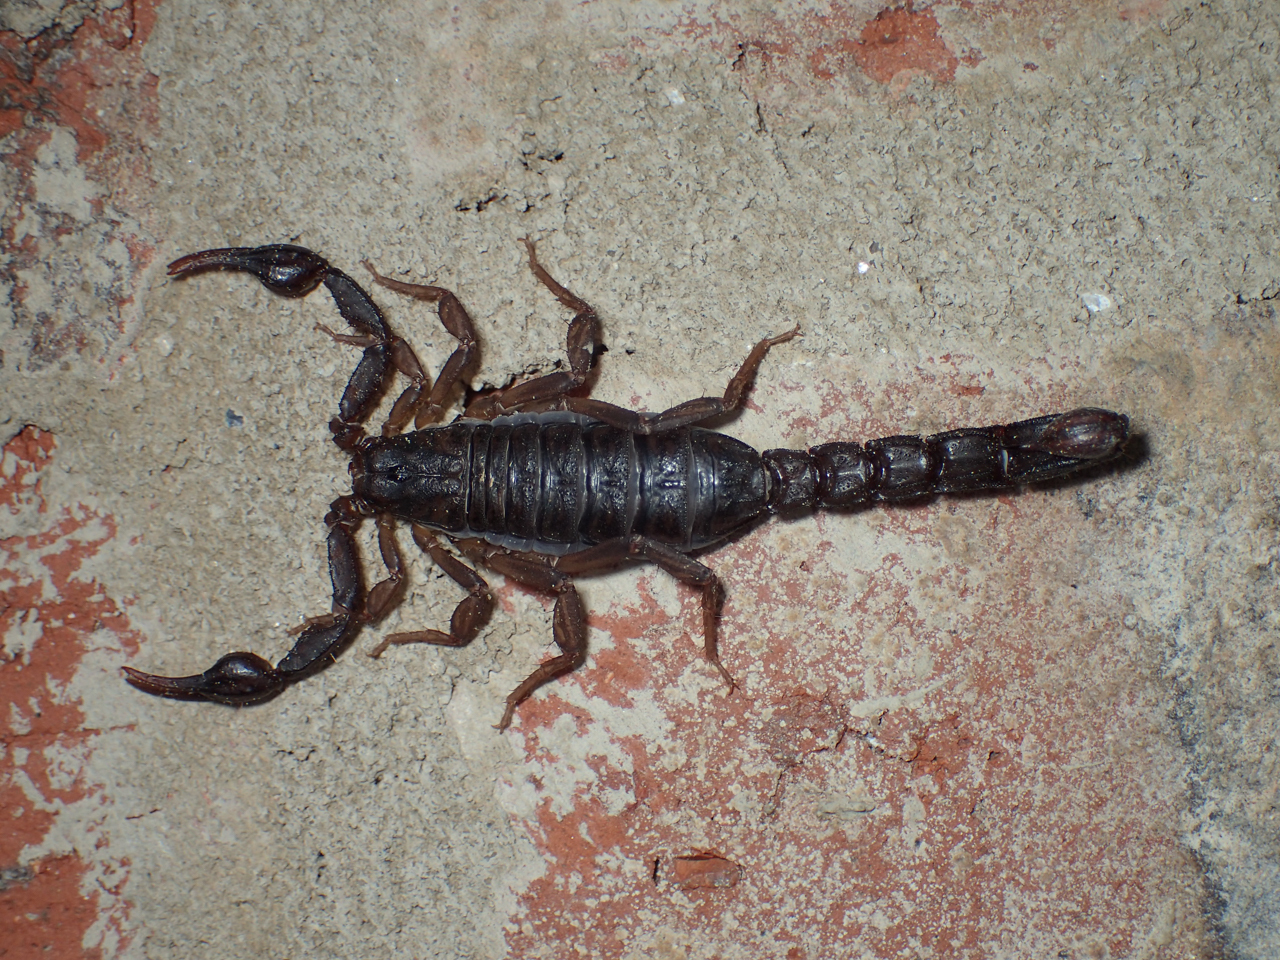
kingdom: Animalia
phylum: Arthropoda
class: Arachnida
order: Scorpiones
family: Vaejovidae
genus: Vaejovis
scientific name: Vaejovis carolinianus
